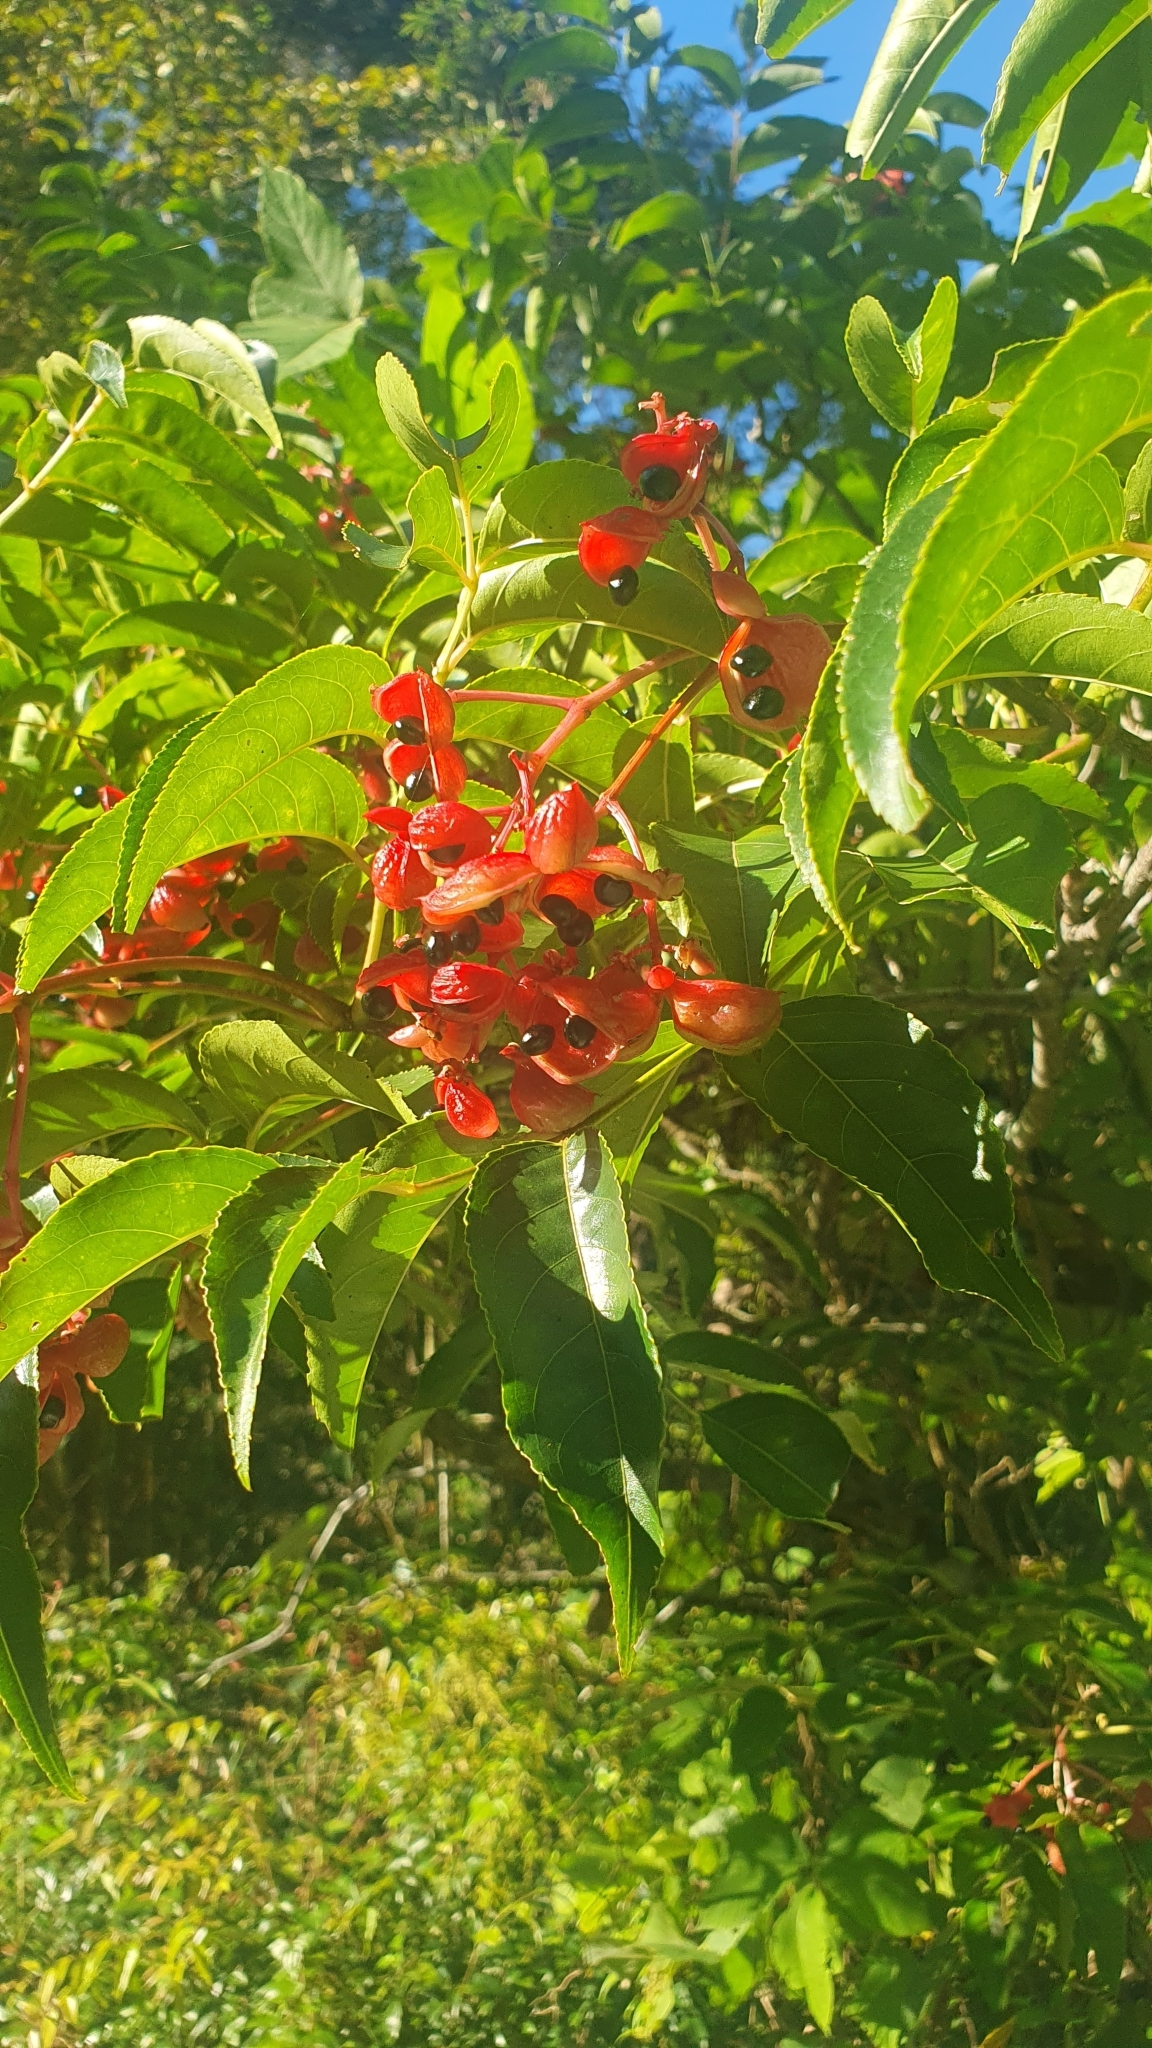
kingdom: Plantae
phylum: Tracheophyta
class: Magnoliopsida
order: Crossosomatales
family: Staphyleaceae
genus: Staphylea
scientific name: Staphylea japonica
